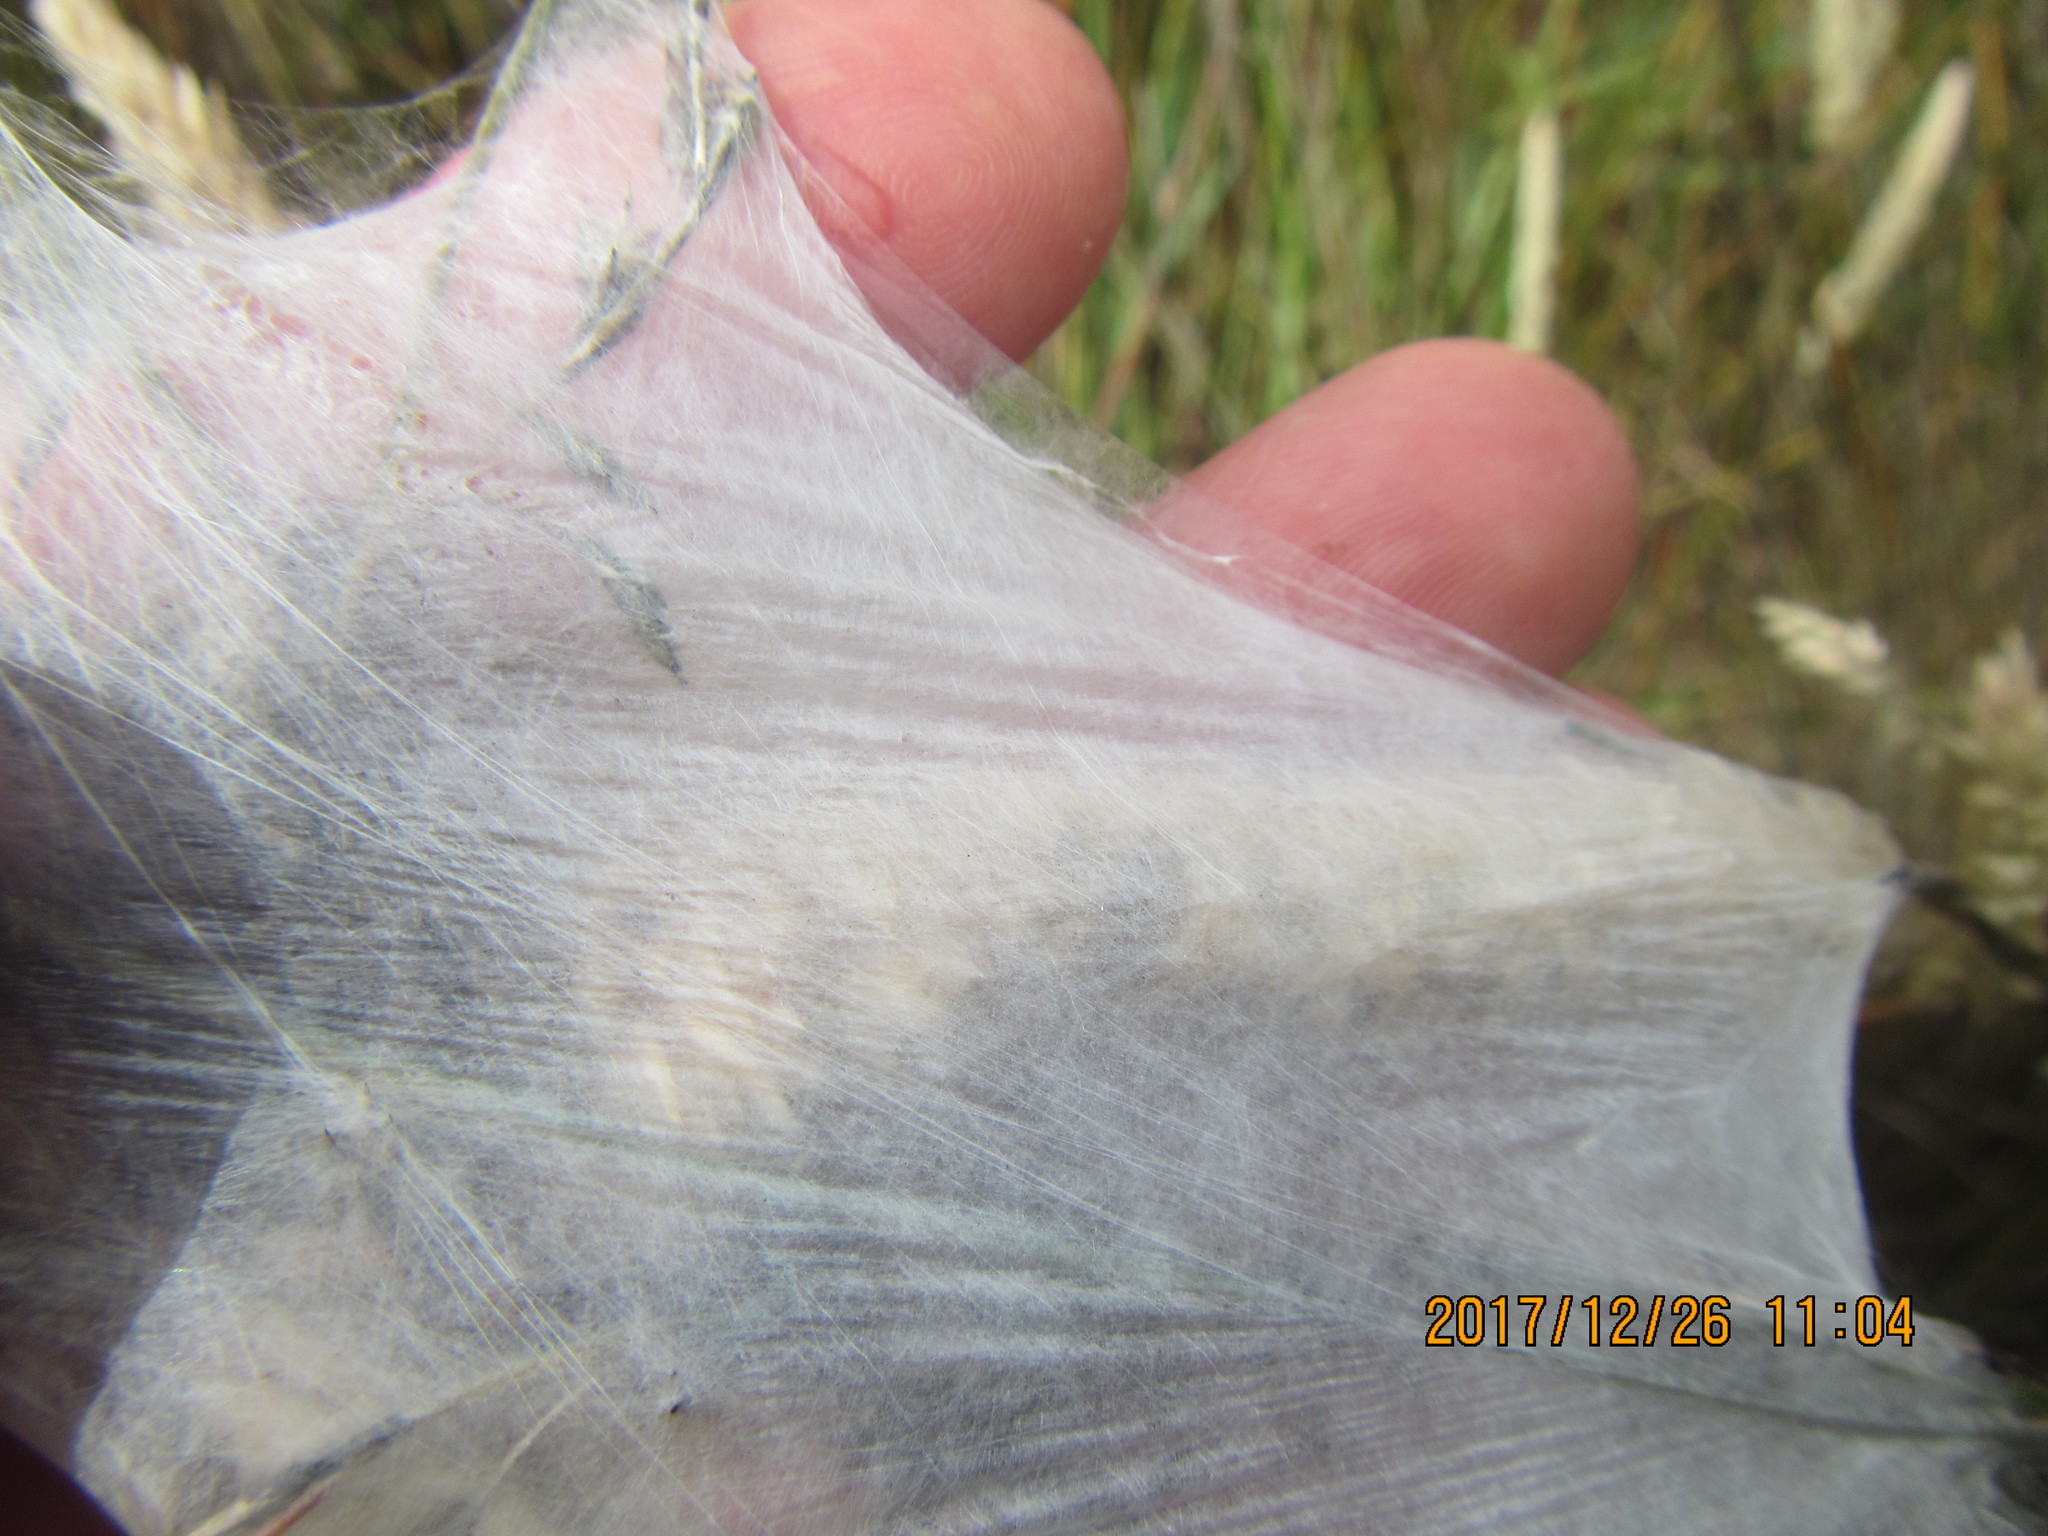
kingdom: Animalia
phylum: Arthropoda
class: Arachnida
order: Araneae
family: Pisauridae
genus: Dolomedes
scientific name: Dolomedes minor
